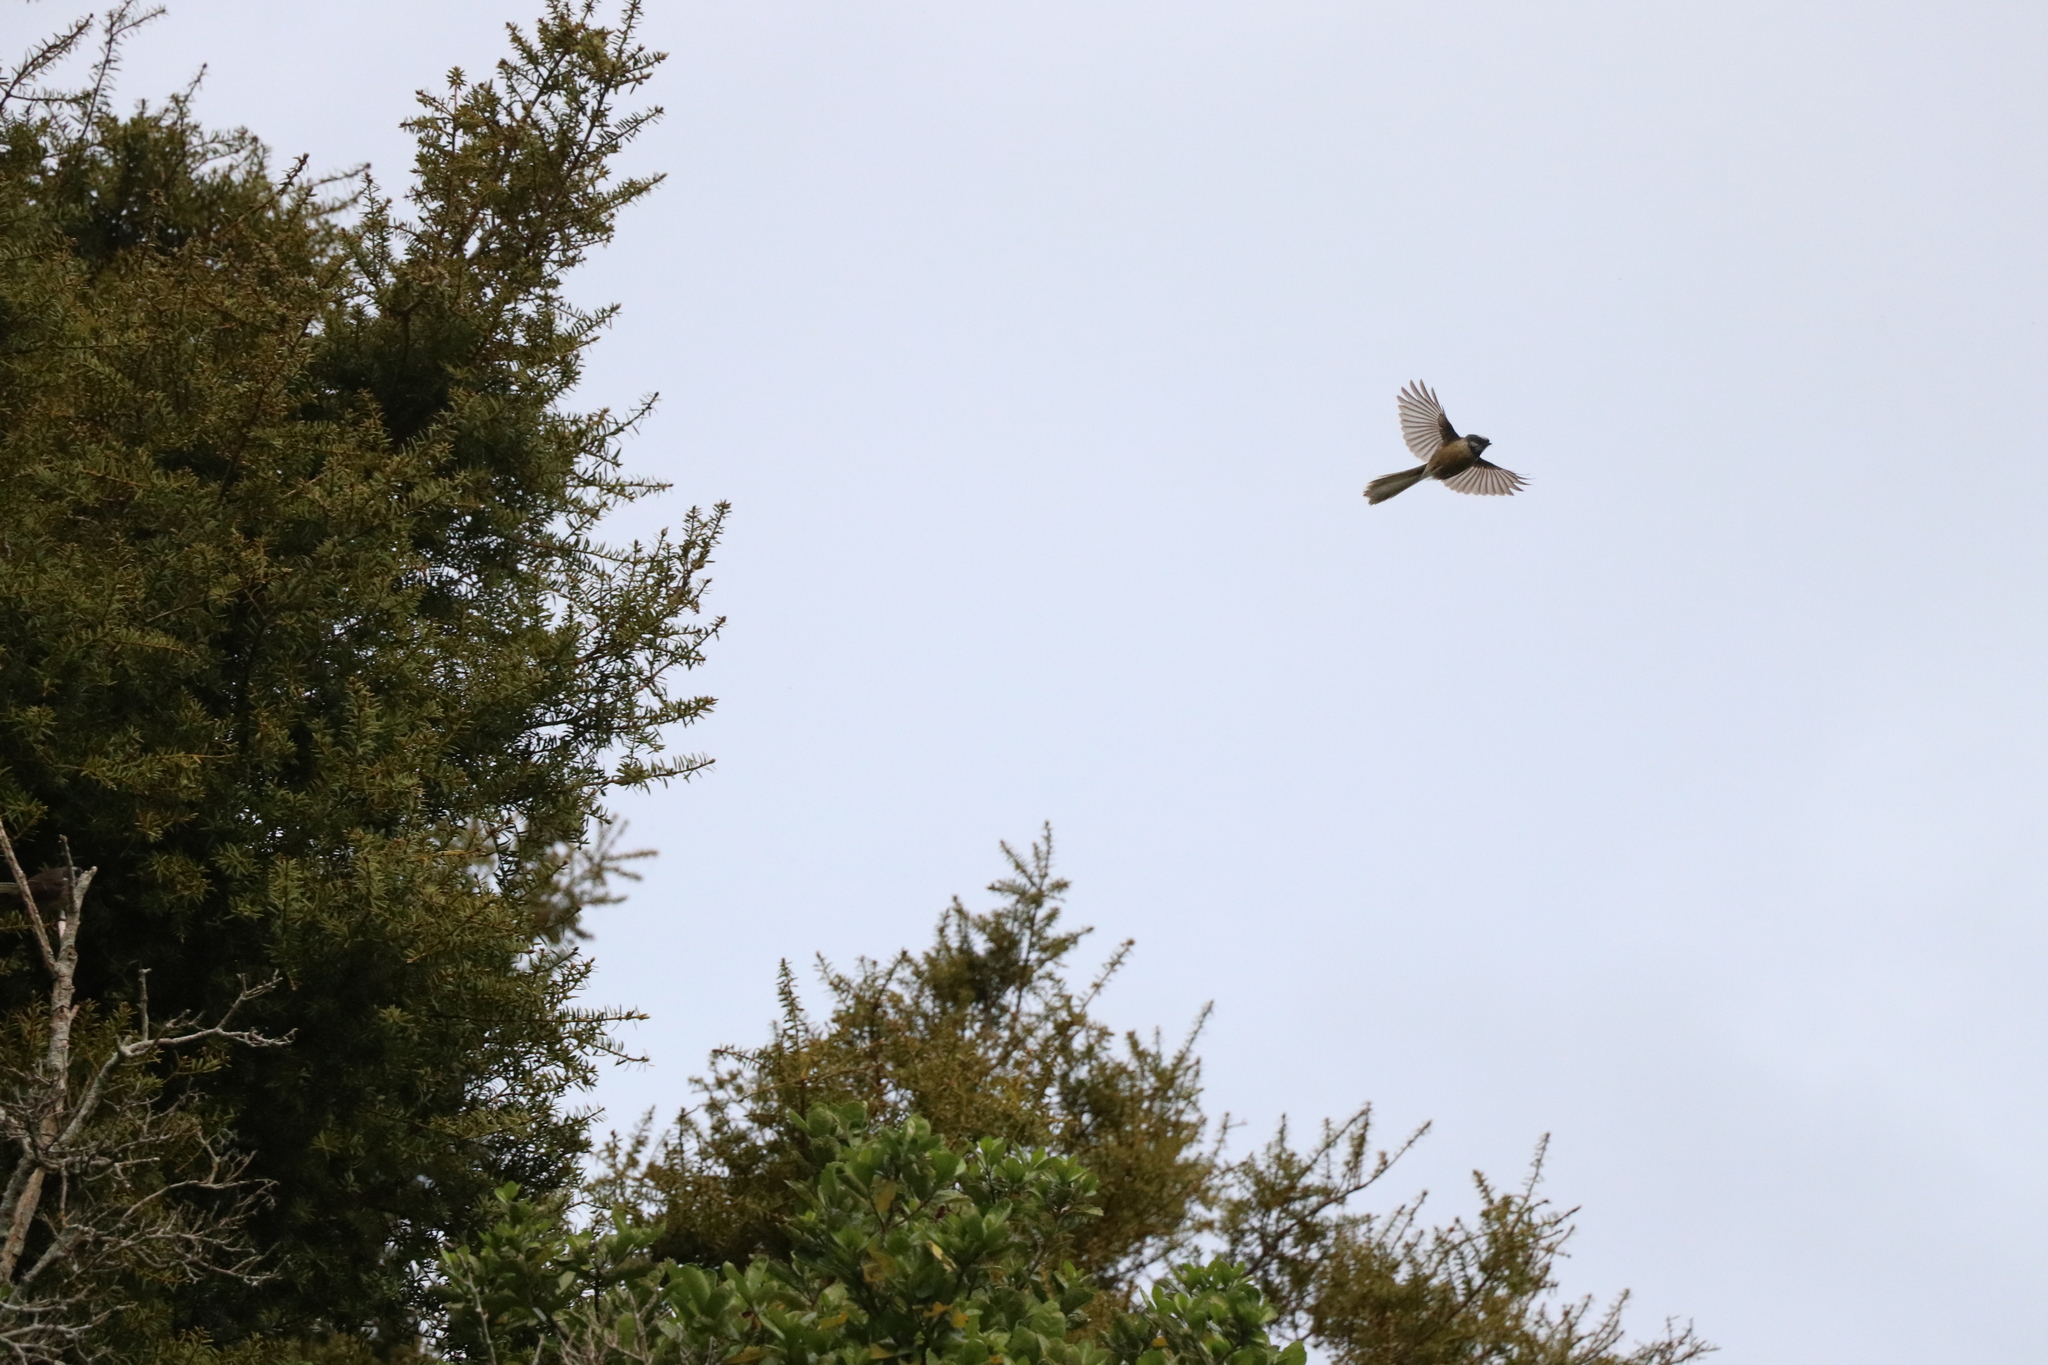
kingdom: Animalia
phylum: Chordata
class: Aves
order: Passeriformes
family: Rhipiduridae
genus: Rhipidura
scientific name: Rhipidura fuliginosa
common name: New zealand fantail
